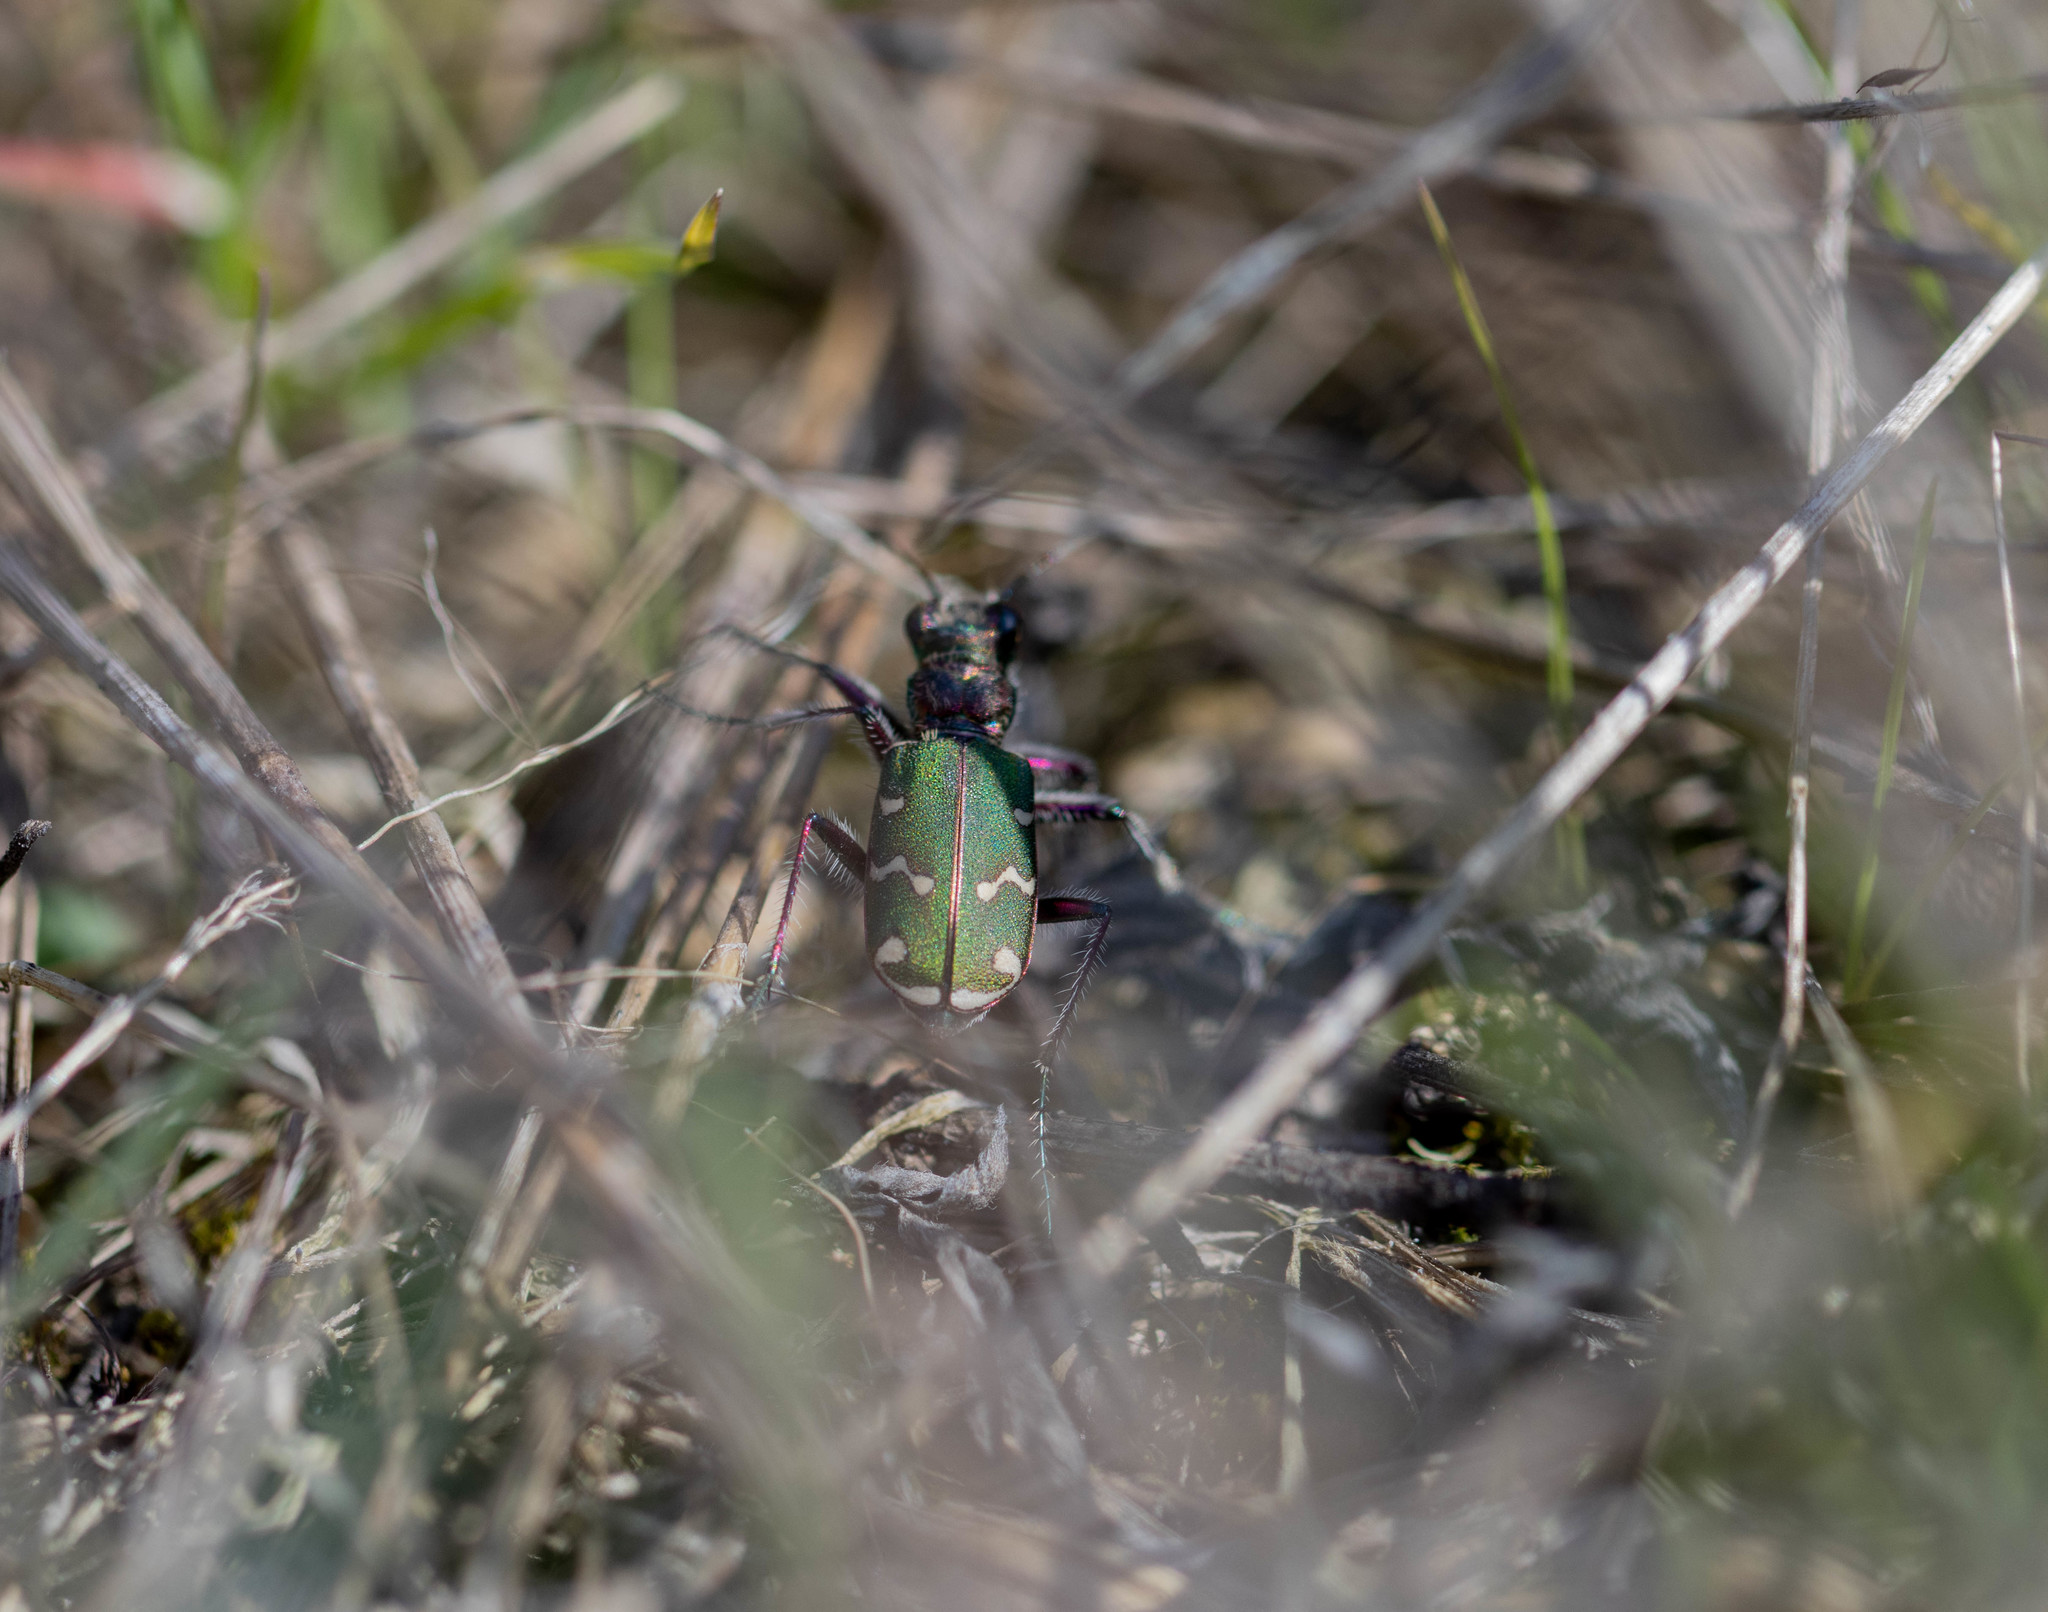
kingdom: Animalia
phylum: Arthropoda
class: Insecta
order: Coleoptera
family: Carabidae
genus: Cicindela
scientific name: Cicindela soluta
